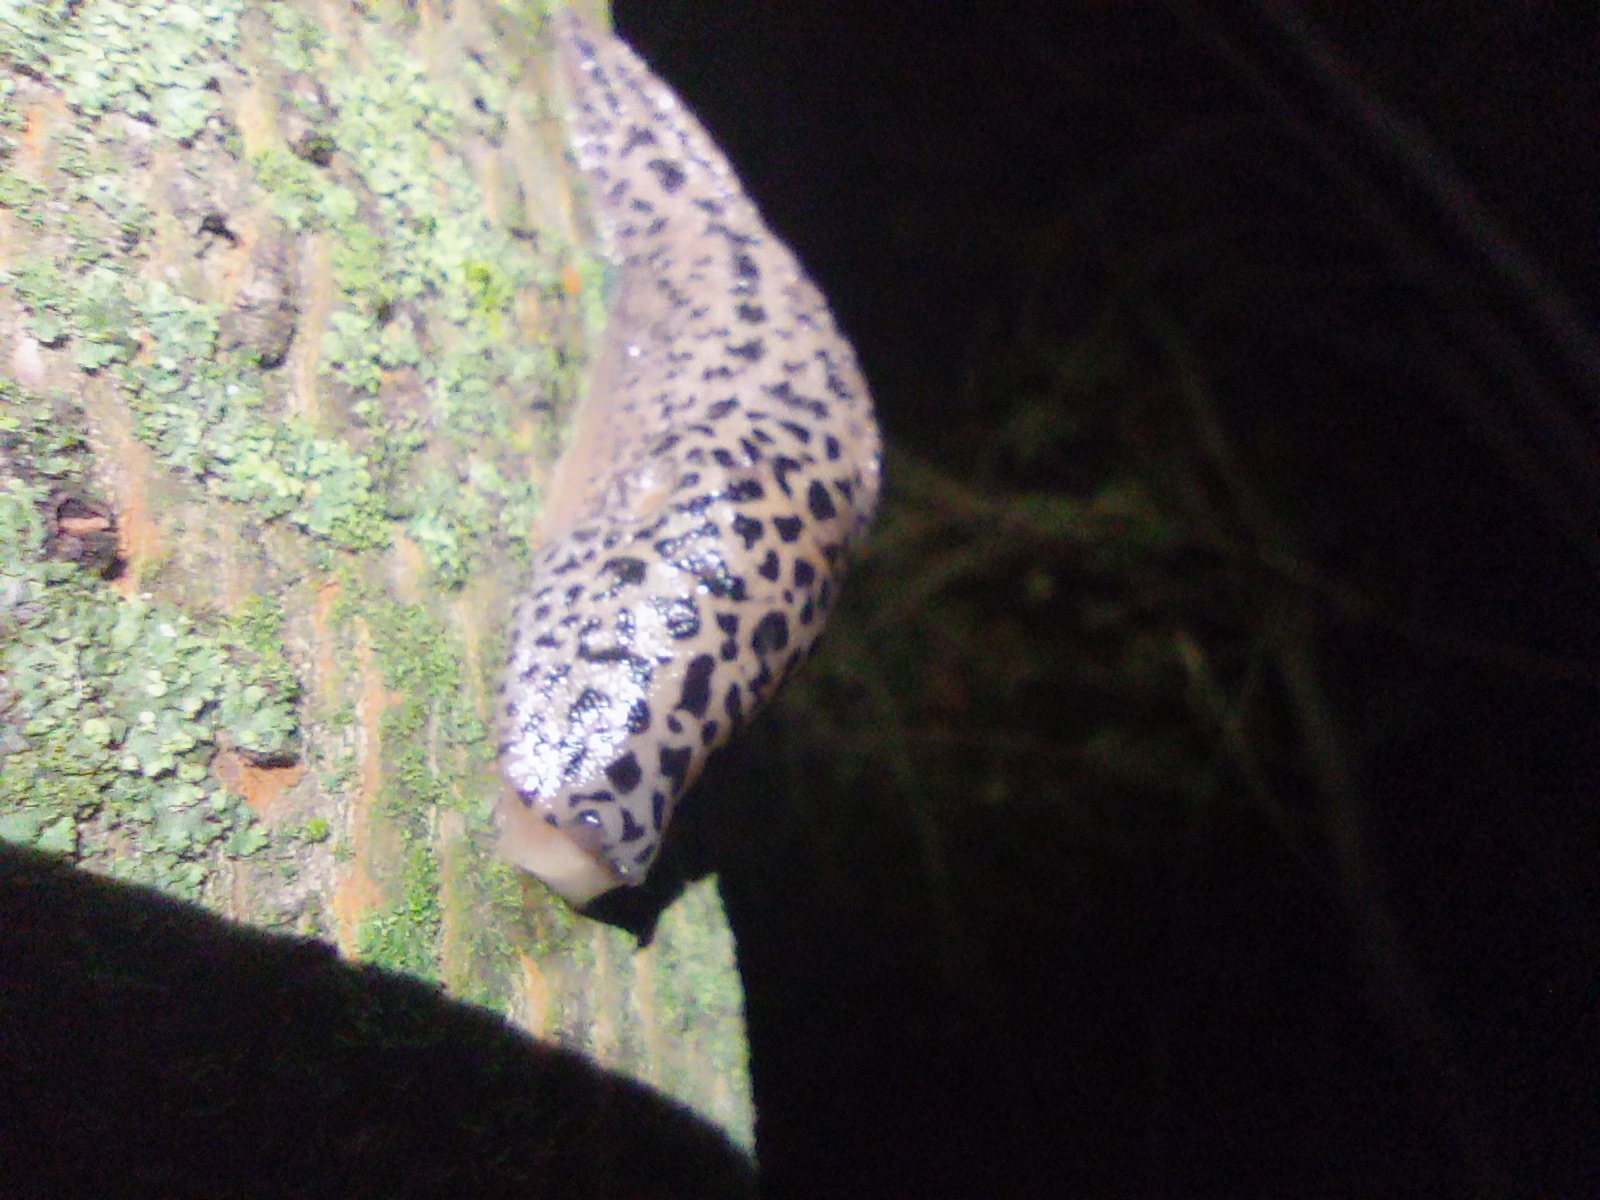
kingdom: Animalia
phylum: Mollusca
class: Gastropoda
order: Stylommatophora
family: Limacidae
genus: Limax
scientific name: Limax maximus
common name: Great grey slug
